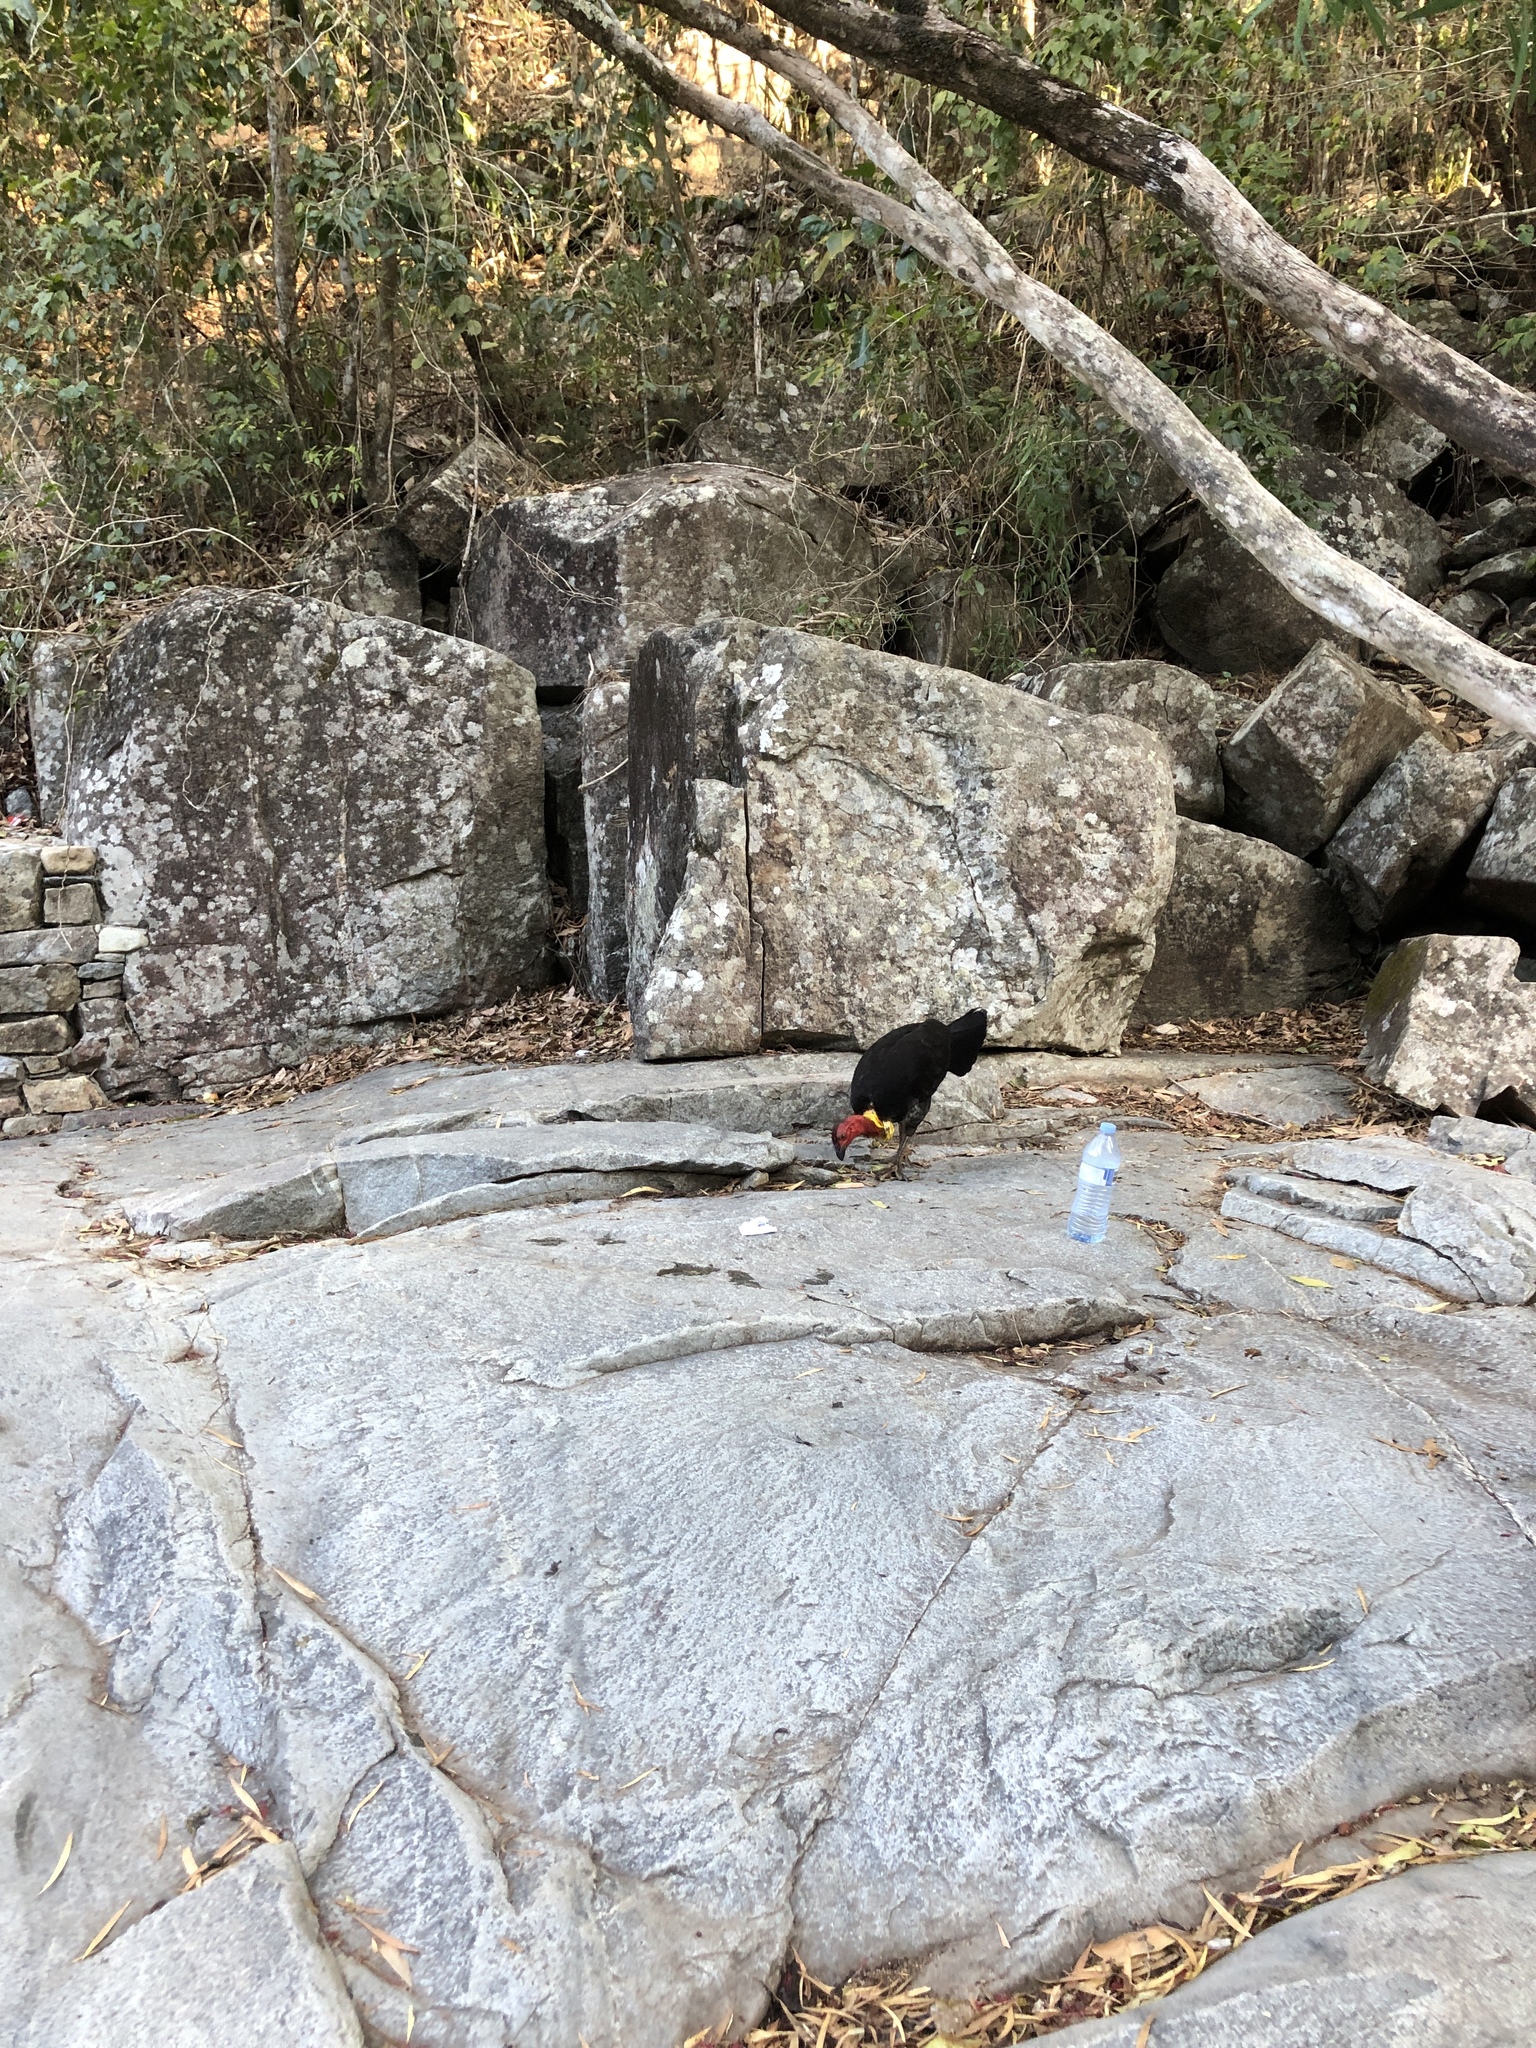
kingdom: Animalia
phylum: Chordata
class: Aves
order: Galliformes
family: Megapodiidae
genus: Alectura
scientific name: Alectura lathami
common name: Australian brushturkey
